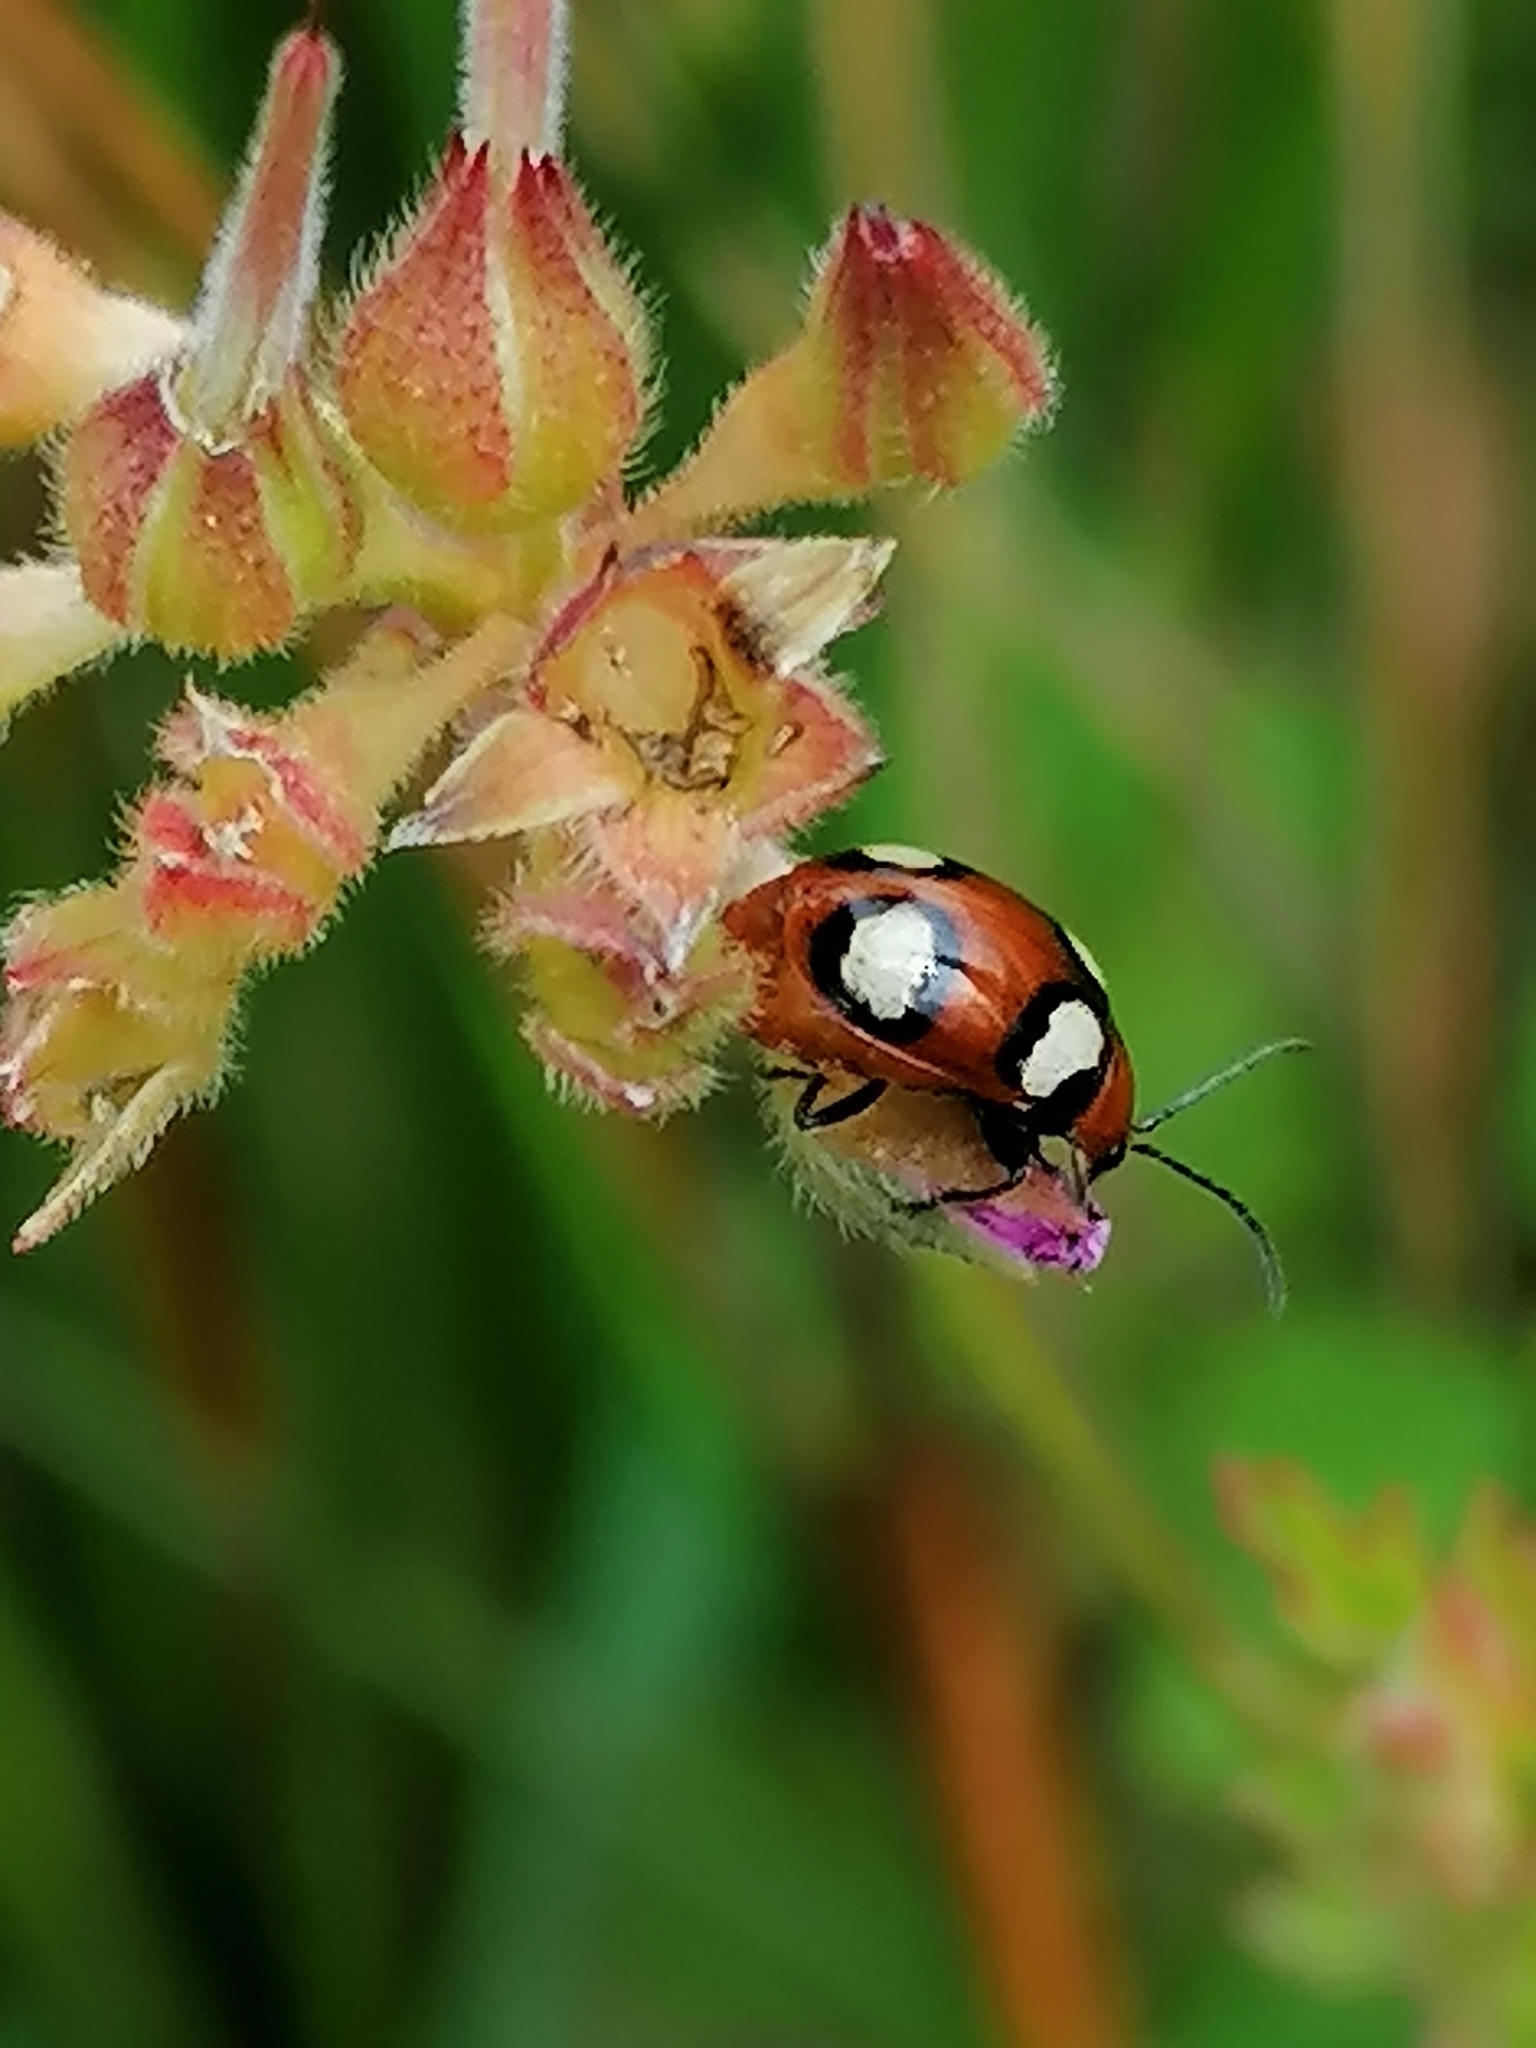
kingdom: Animalia
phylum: Arthropoda
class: Insecta
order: Coleoptera
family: Chrysomelidae
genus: Monolepta
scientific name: Monolepta
